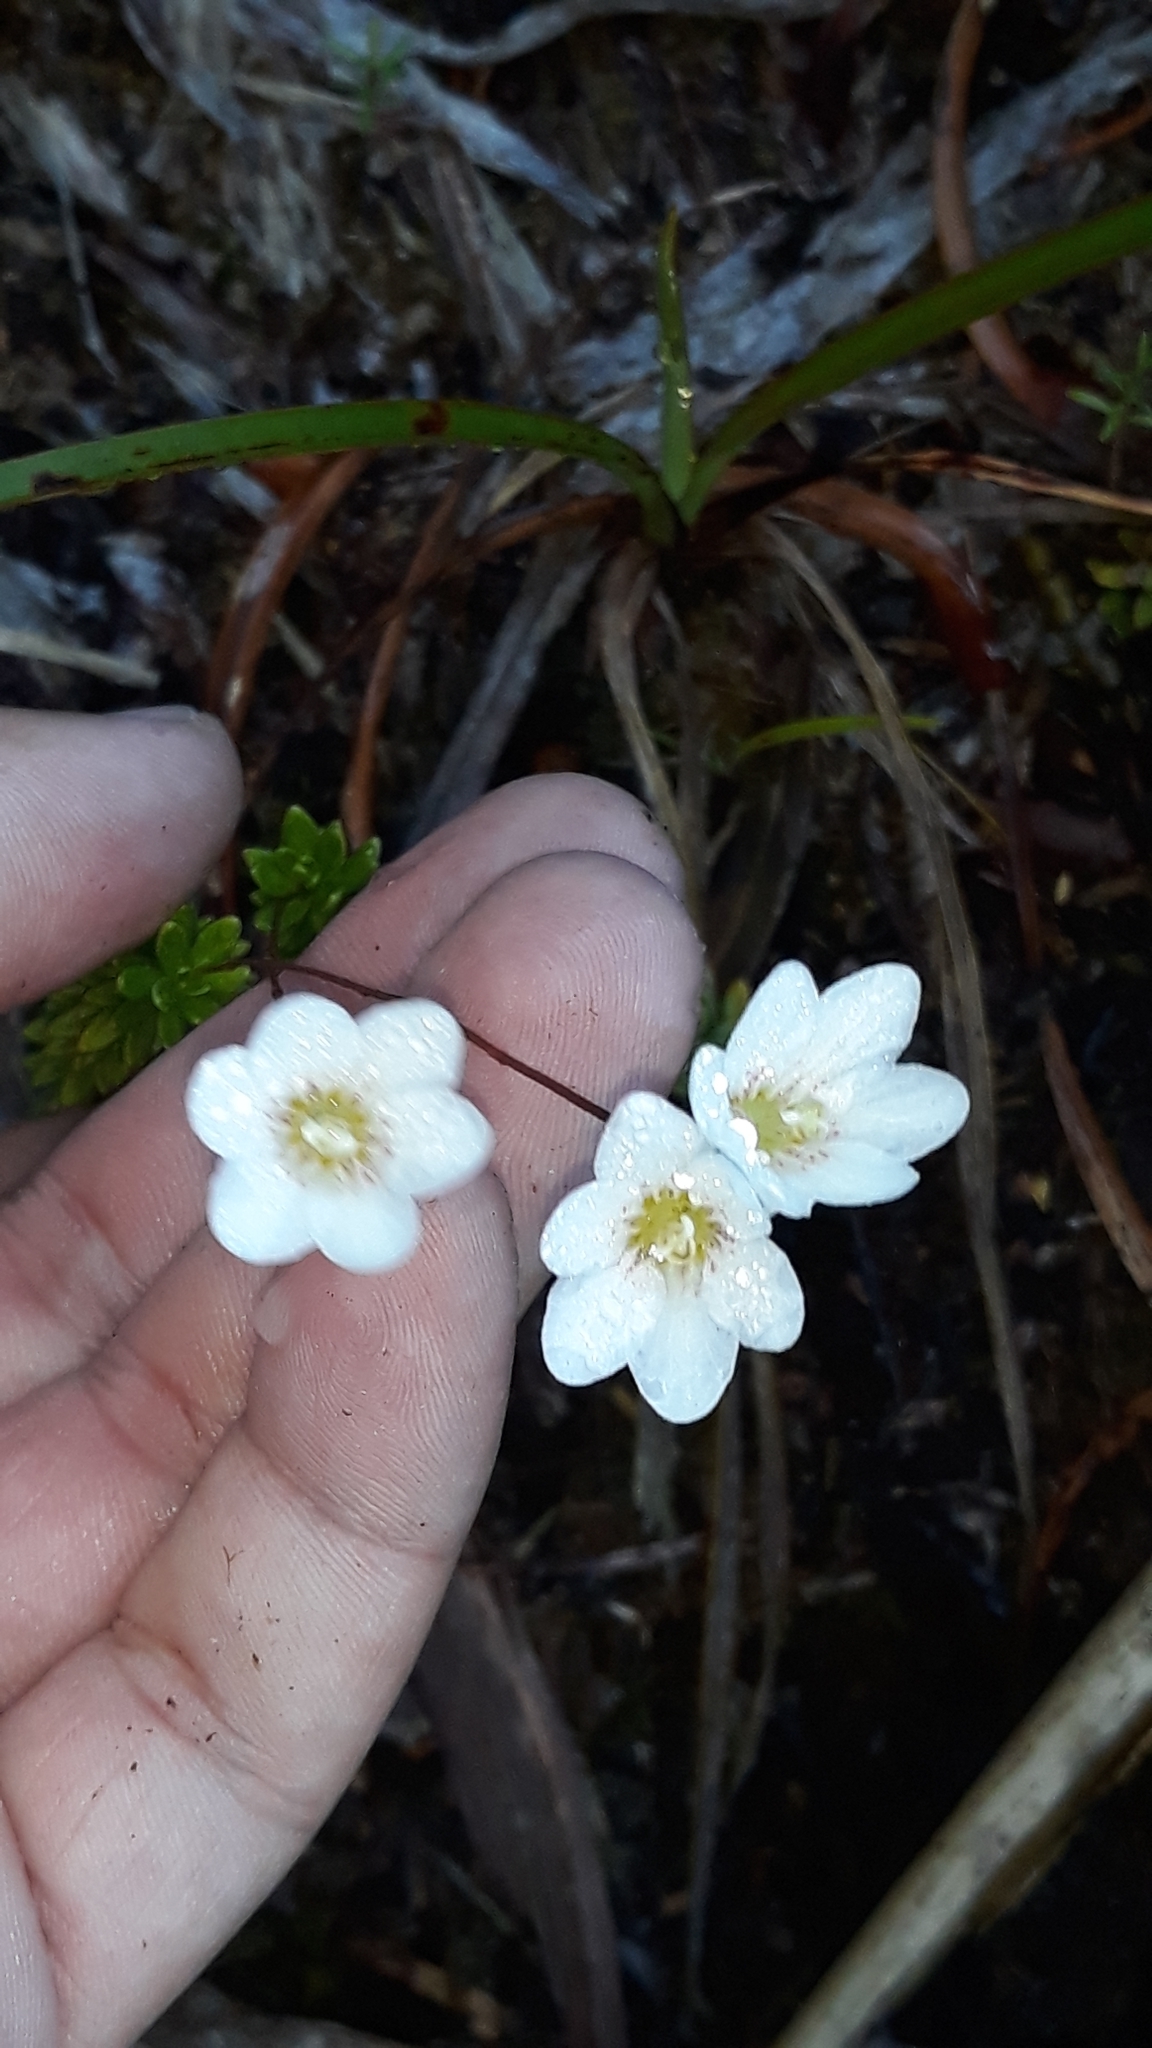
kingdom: Plantae
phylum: Tracheophyta
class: Magnoliopsida
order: Asterales
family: Stylidiaceae
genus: Forstera
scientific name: Forstera mackayi
